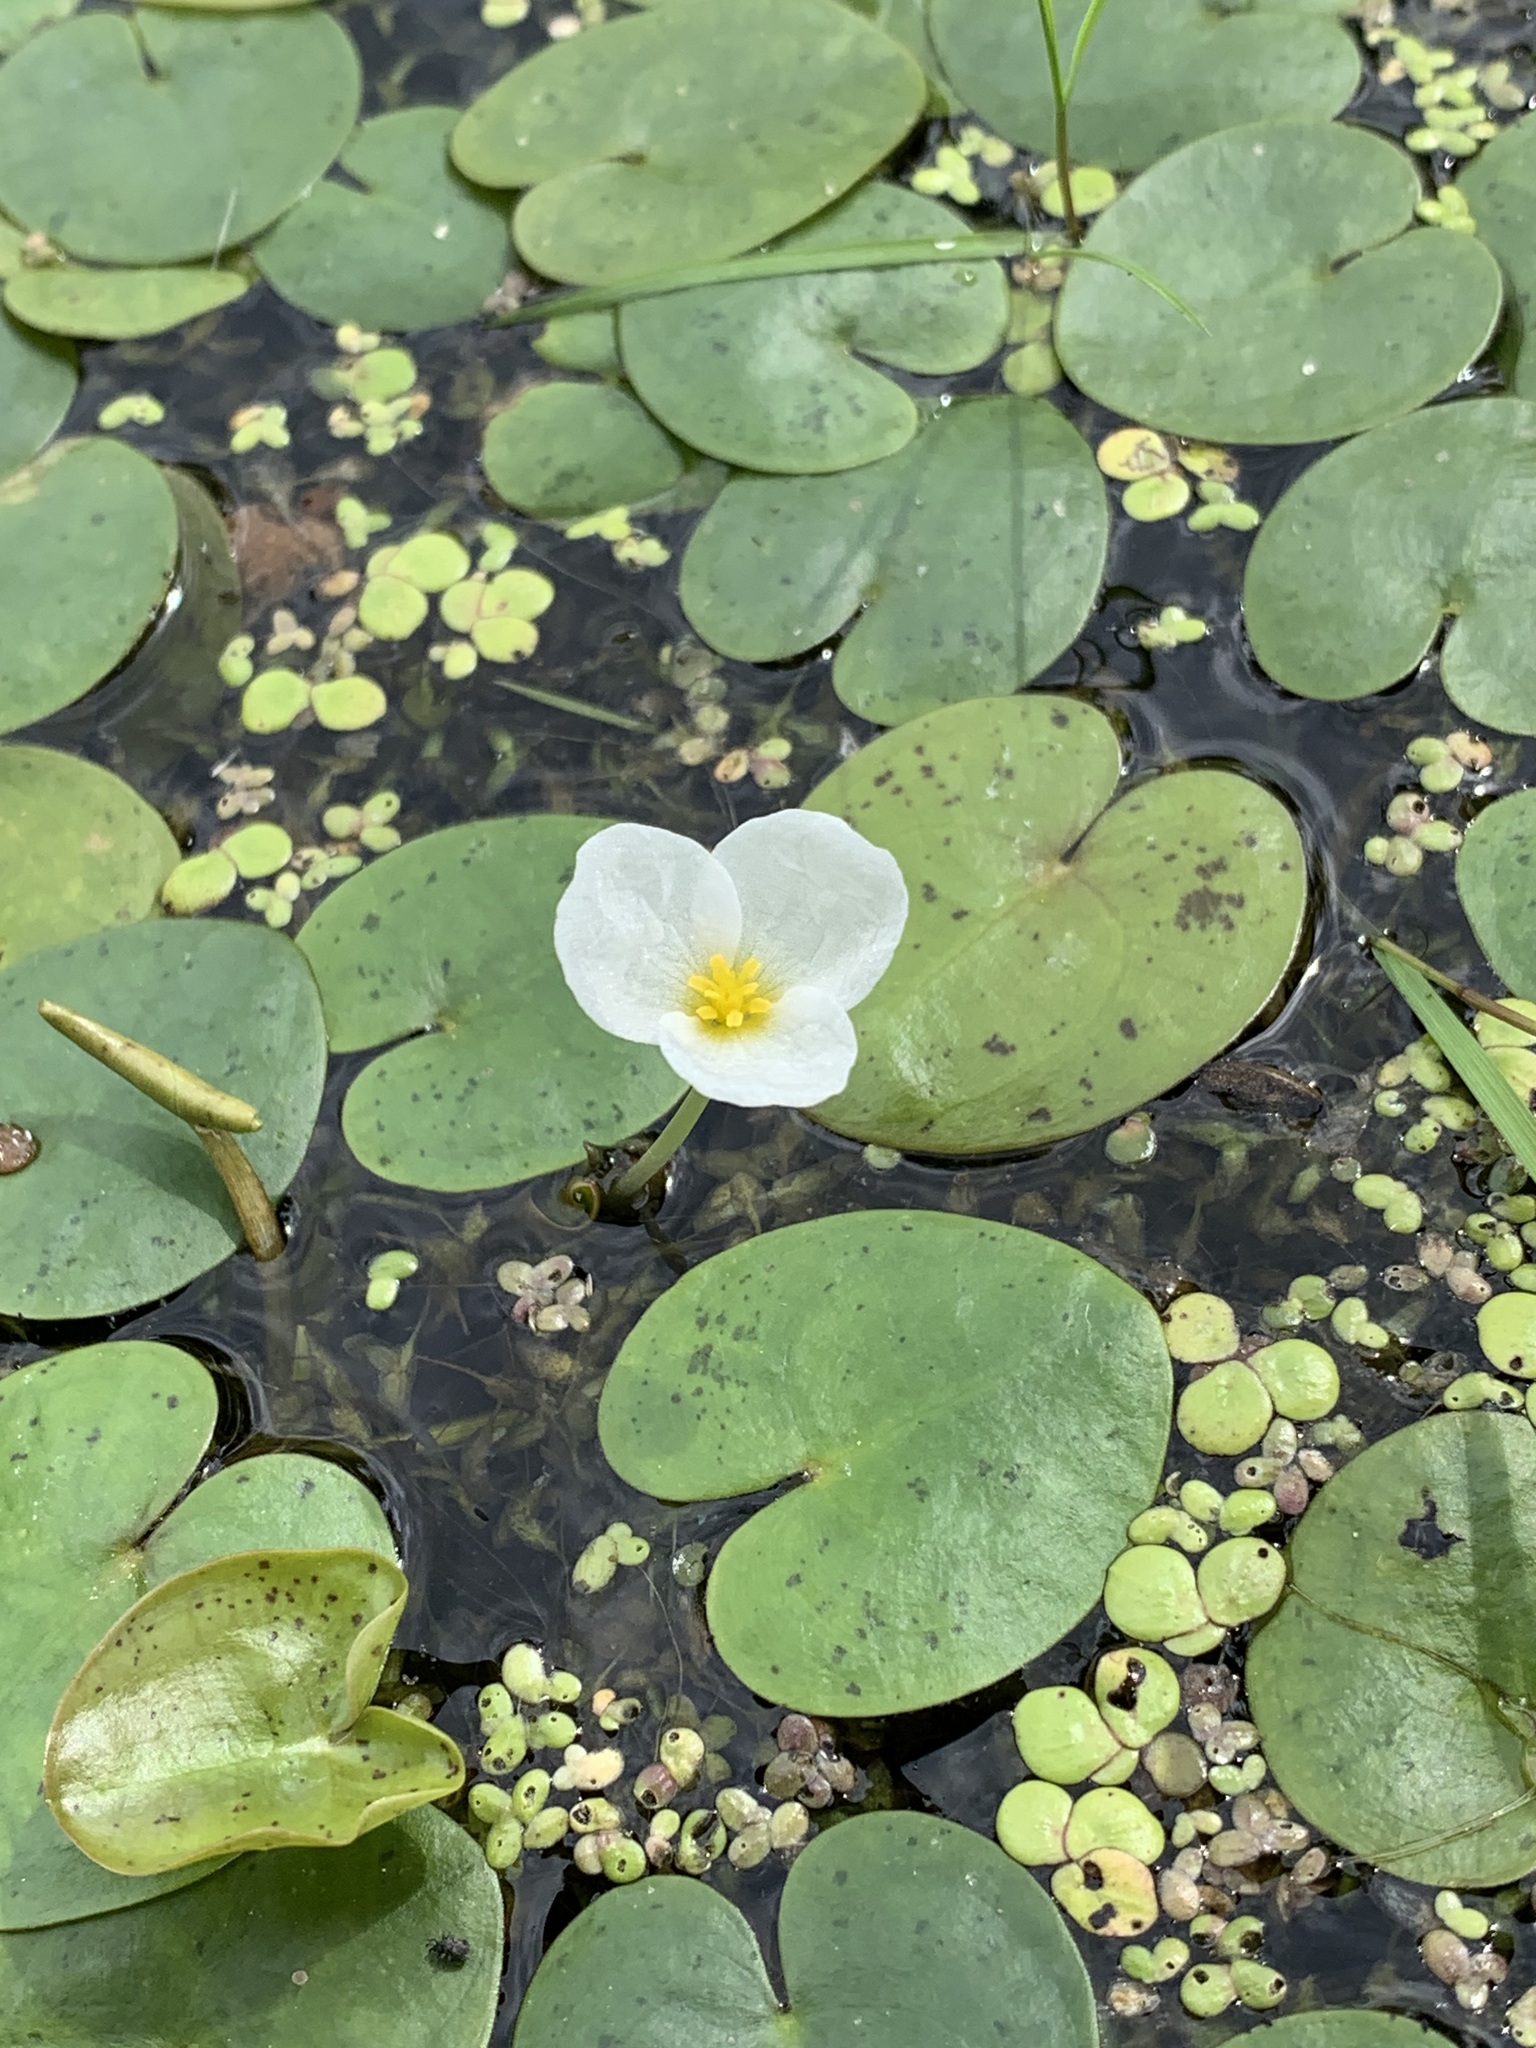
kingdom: Plantae
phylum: Tracheophyta
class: Liliopsida
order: Alismatales
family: Hydrocharitaceae
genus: Hydrocharis
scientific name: Hydrocharis morsus-ranae
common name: Frogbit
